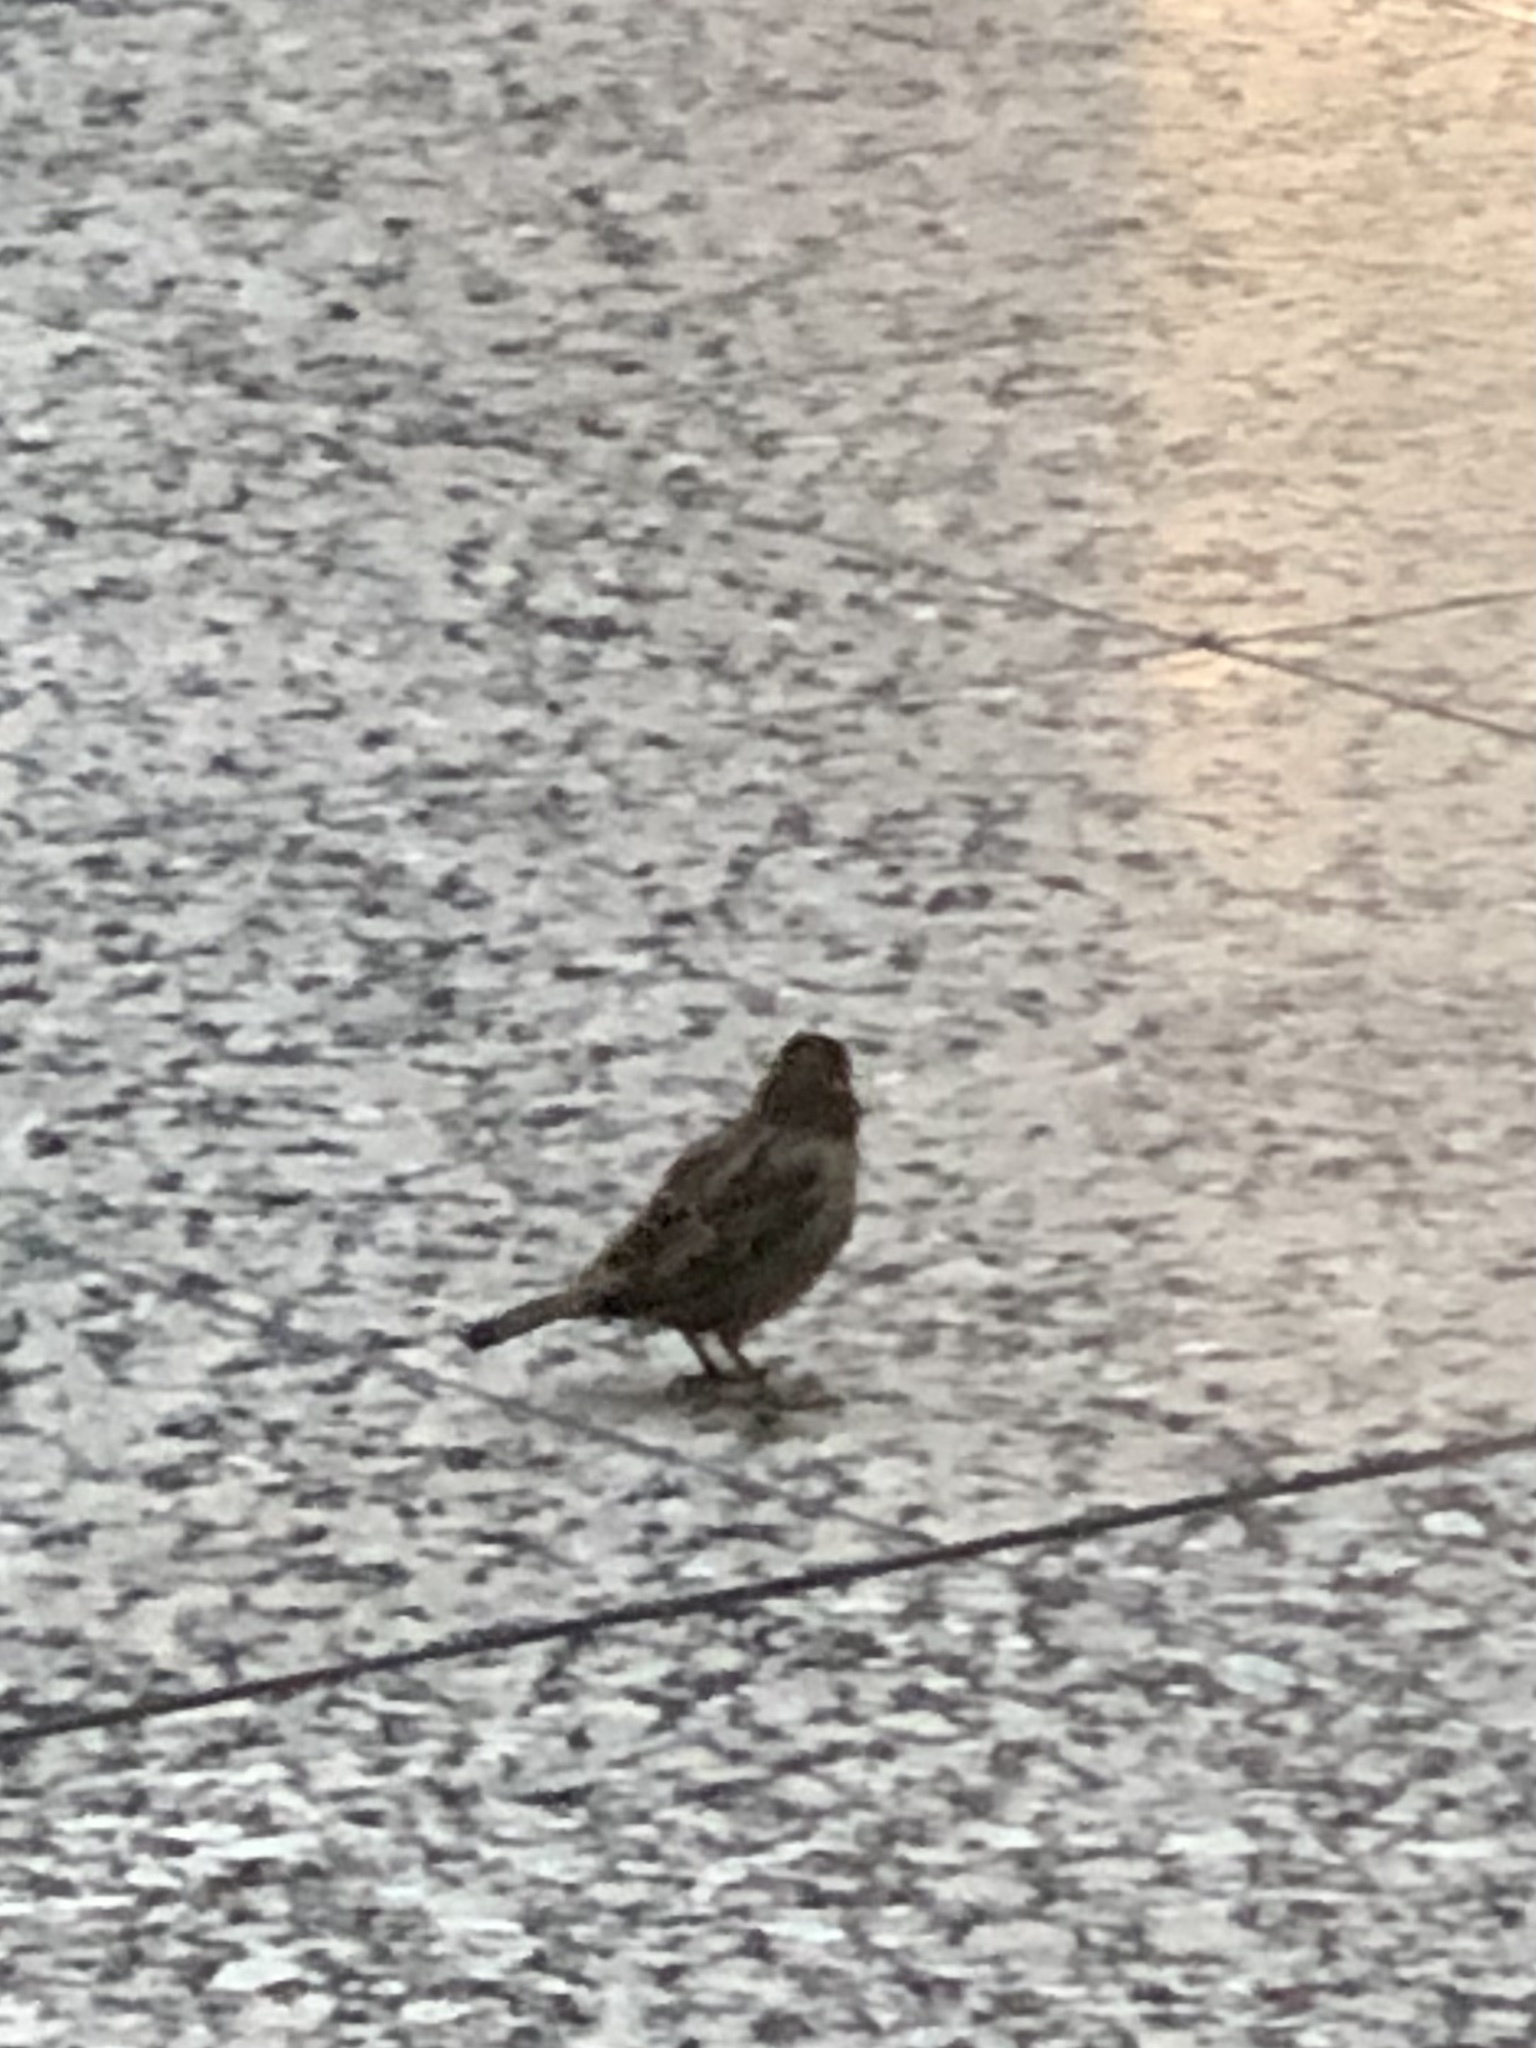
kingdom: Animalia
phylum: Chordata
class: Aves
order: Passeriformes
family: Passeridae
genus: Passer
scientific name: Passer domesticus
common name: House sparrow
